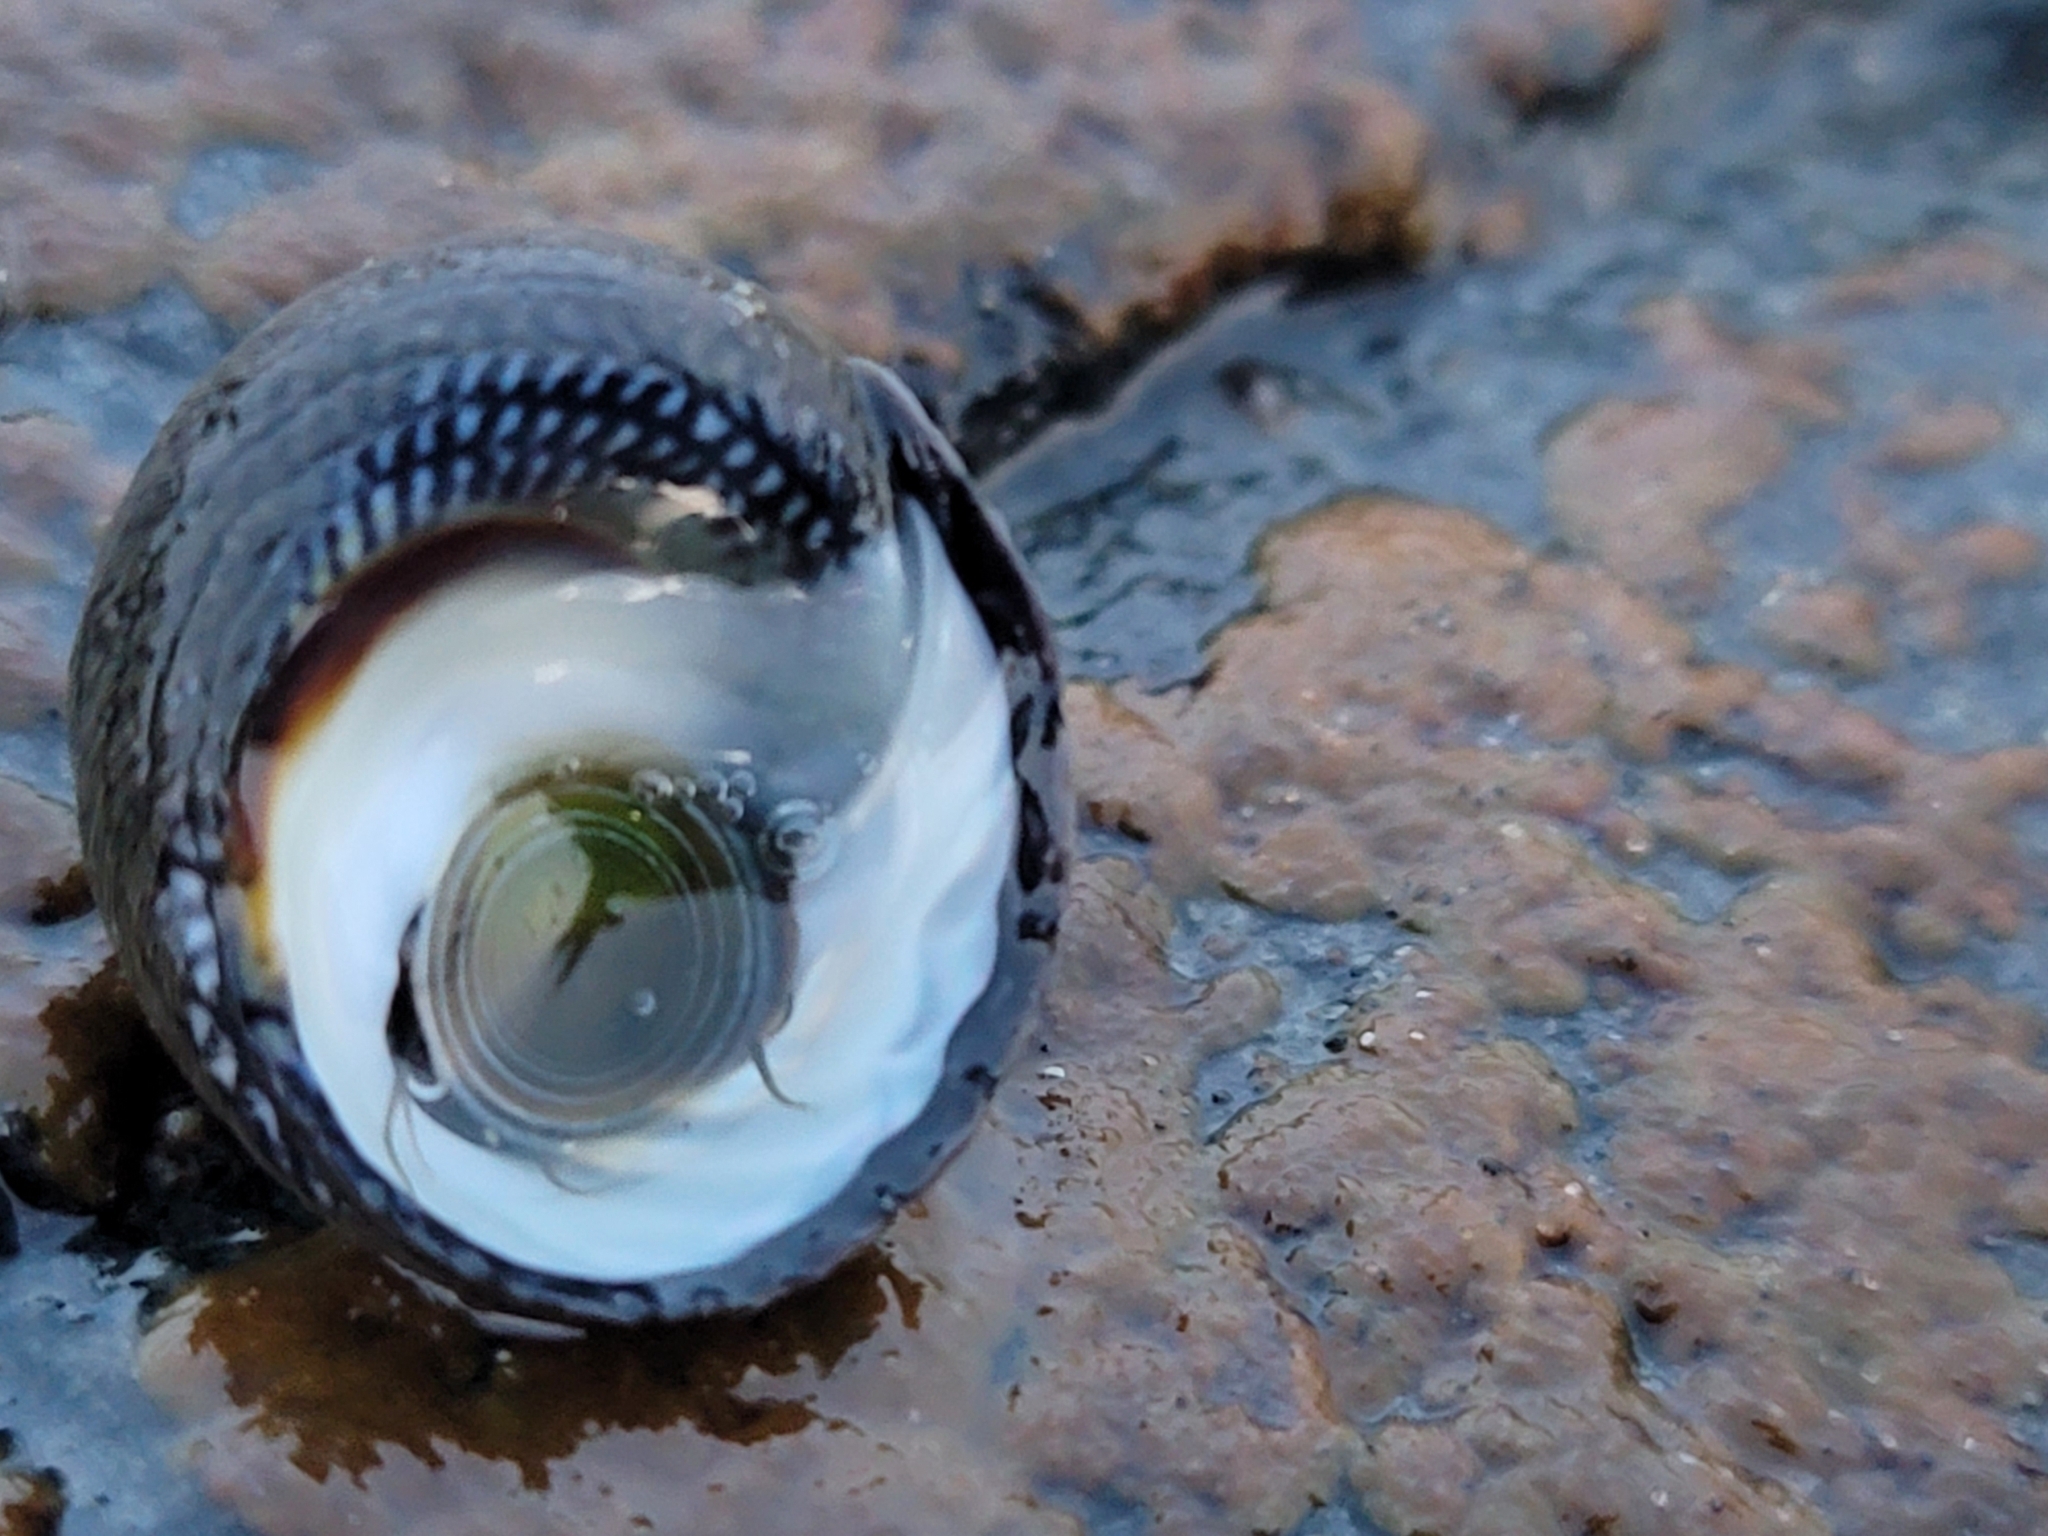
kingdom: Animalia
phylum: Mollusca
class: Gastropoda
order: Trochida
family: Trochidae
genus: Diloma
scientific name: Diloma aethiops
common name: Scorched monodont
